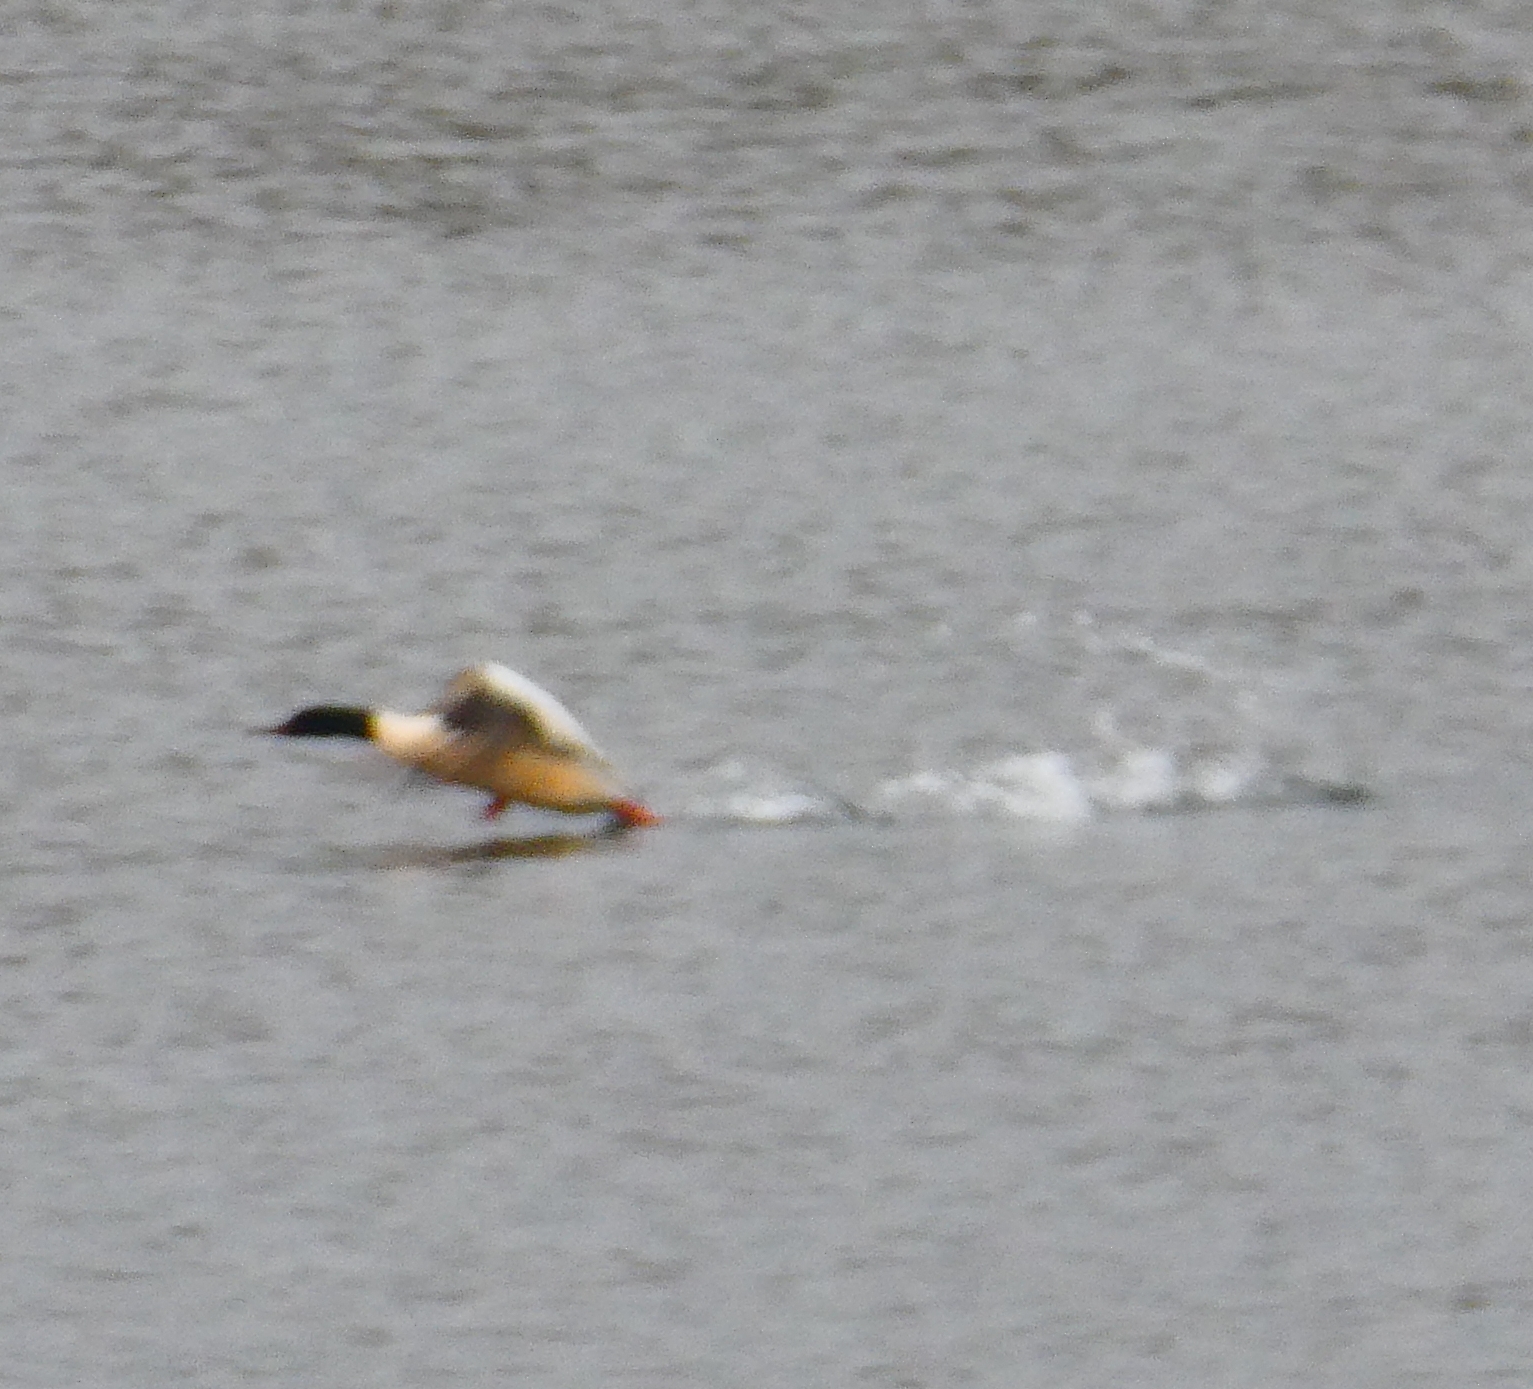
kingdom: Animalia
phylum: Chordata
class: Aves
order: Anseriformes
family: Anatidae
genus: Mergus
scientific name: Mergus merganser
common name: Common merganser
